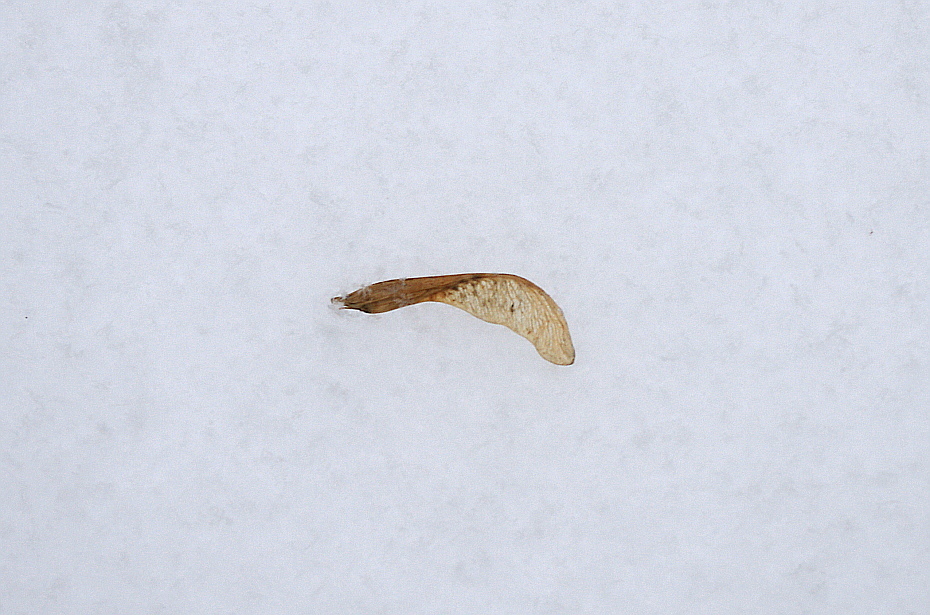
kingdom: Plantae
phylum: Tracheophyta
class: Magnoliopsida
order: Sapindales
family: Sapindaceae
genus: Acer
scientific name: Acer negundo
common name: Ashleaf maple
